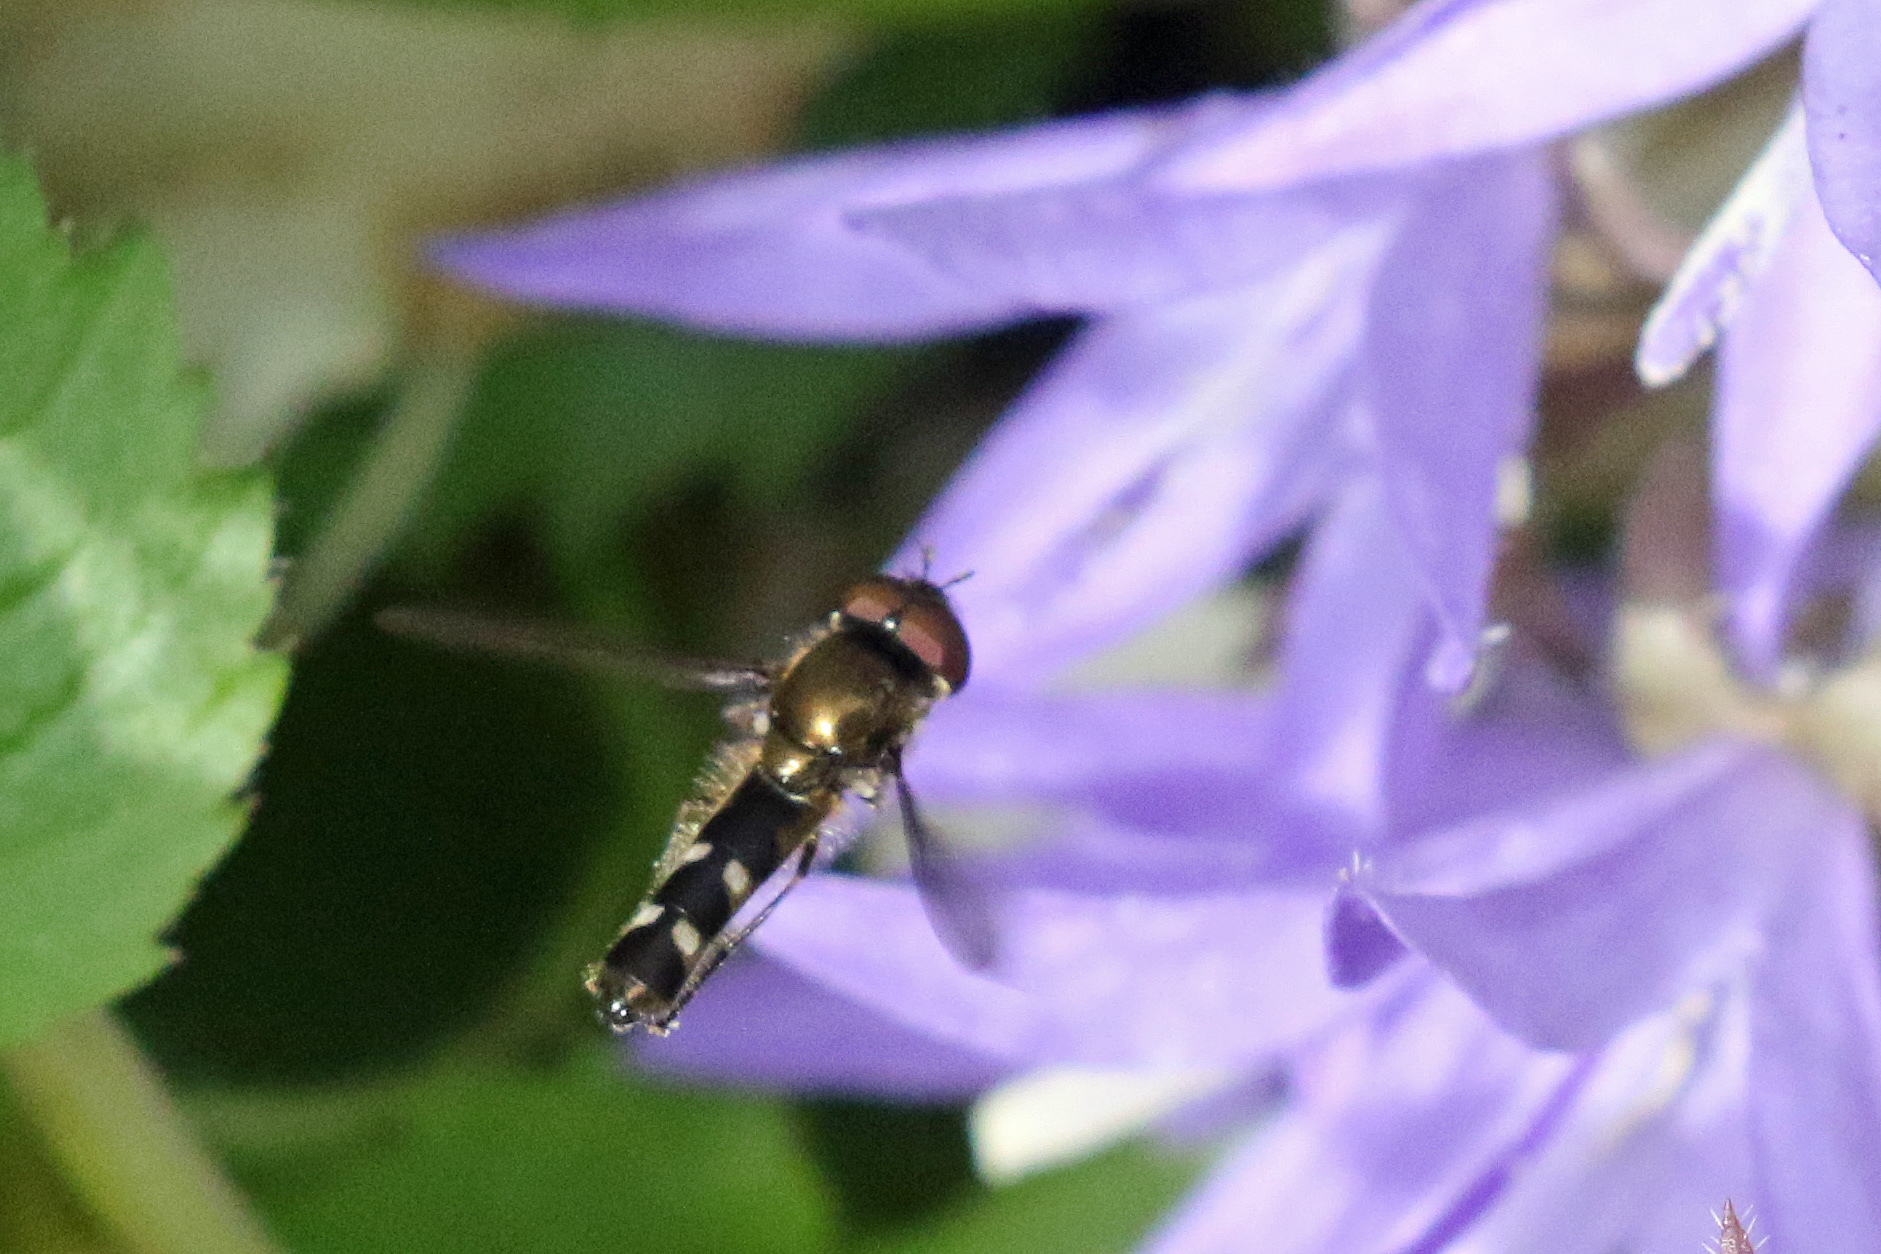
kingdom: Animalia
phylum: Arthropoda
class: Insecta
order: Diptera
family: Syrphidae
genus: Platycheirus
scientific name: Platycheirus
